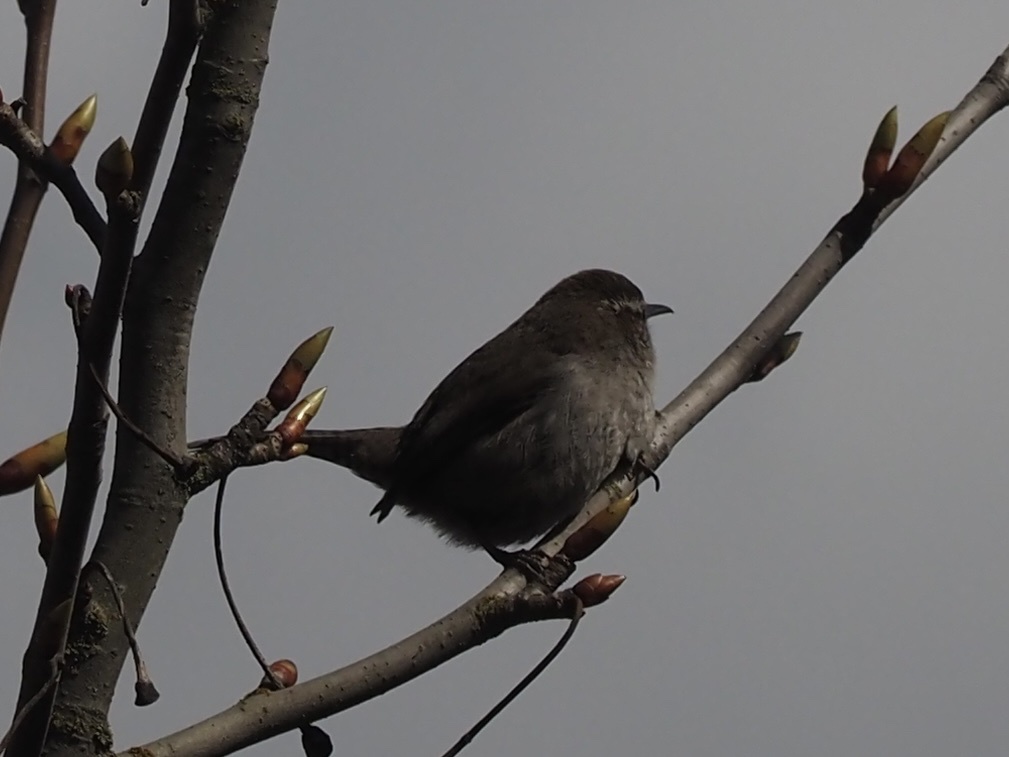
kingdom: Animalia
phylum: Chordata
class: Aves
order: Passeriformes
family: Troglodytidae
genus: Thryomanes
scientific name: Thryomanes bewickii
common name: Bewick's wren
